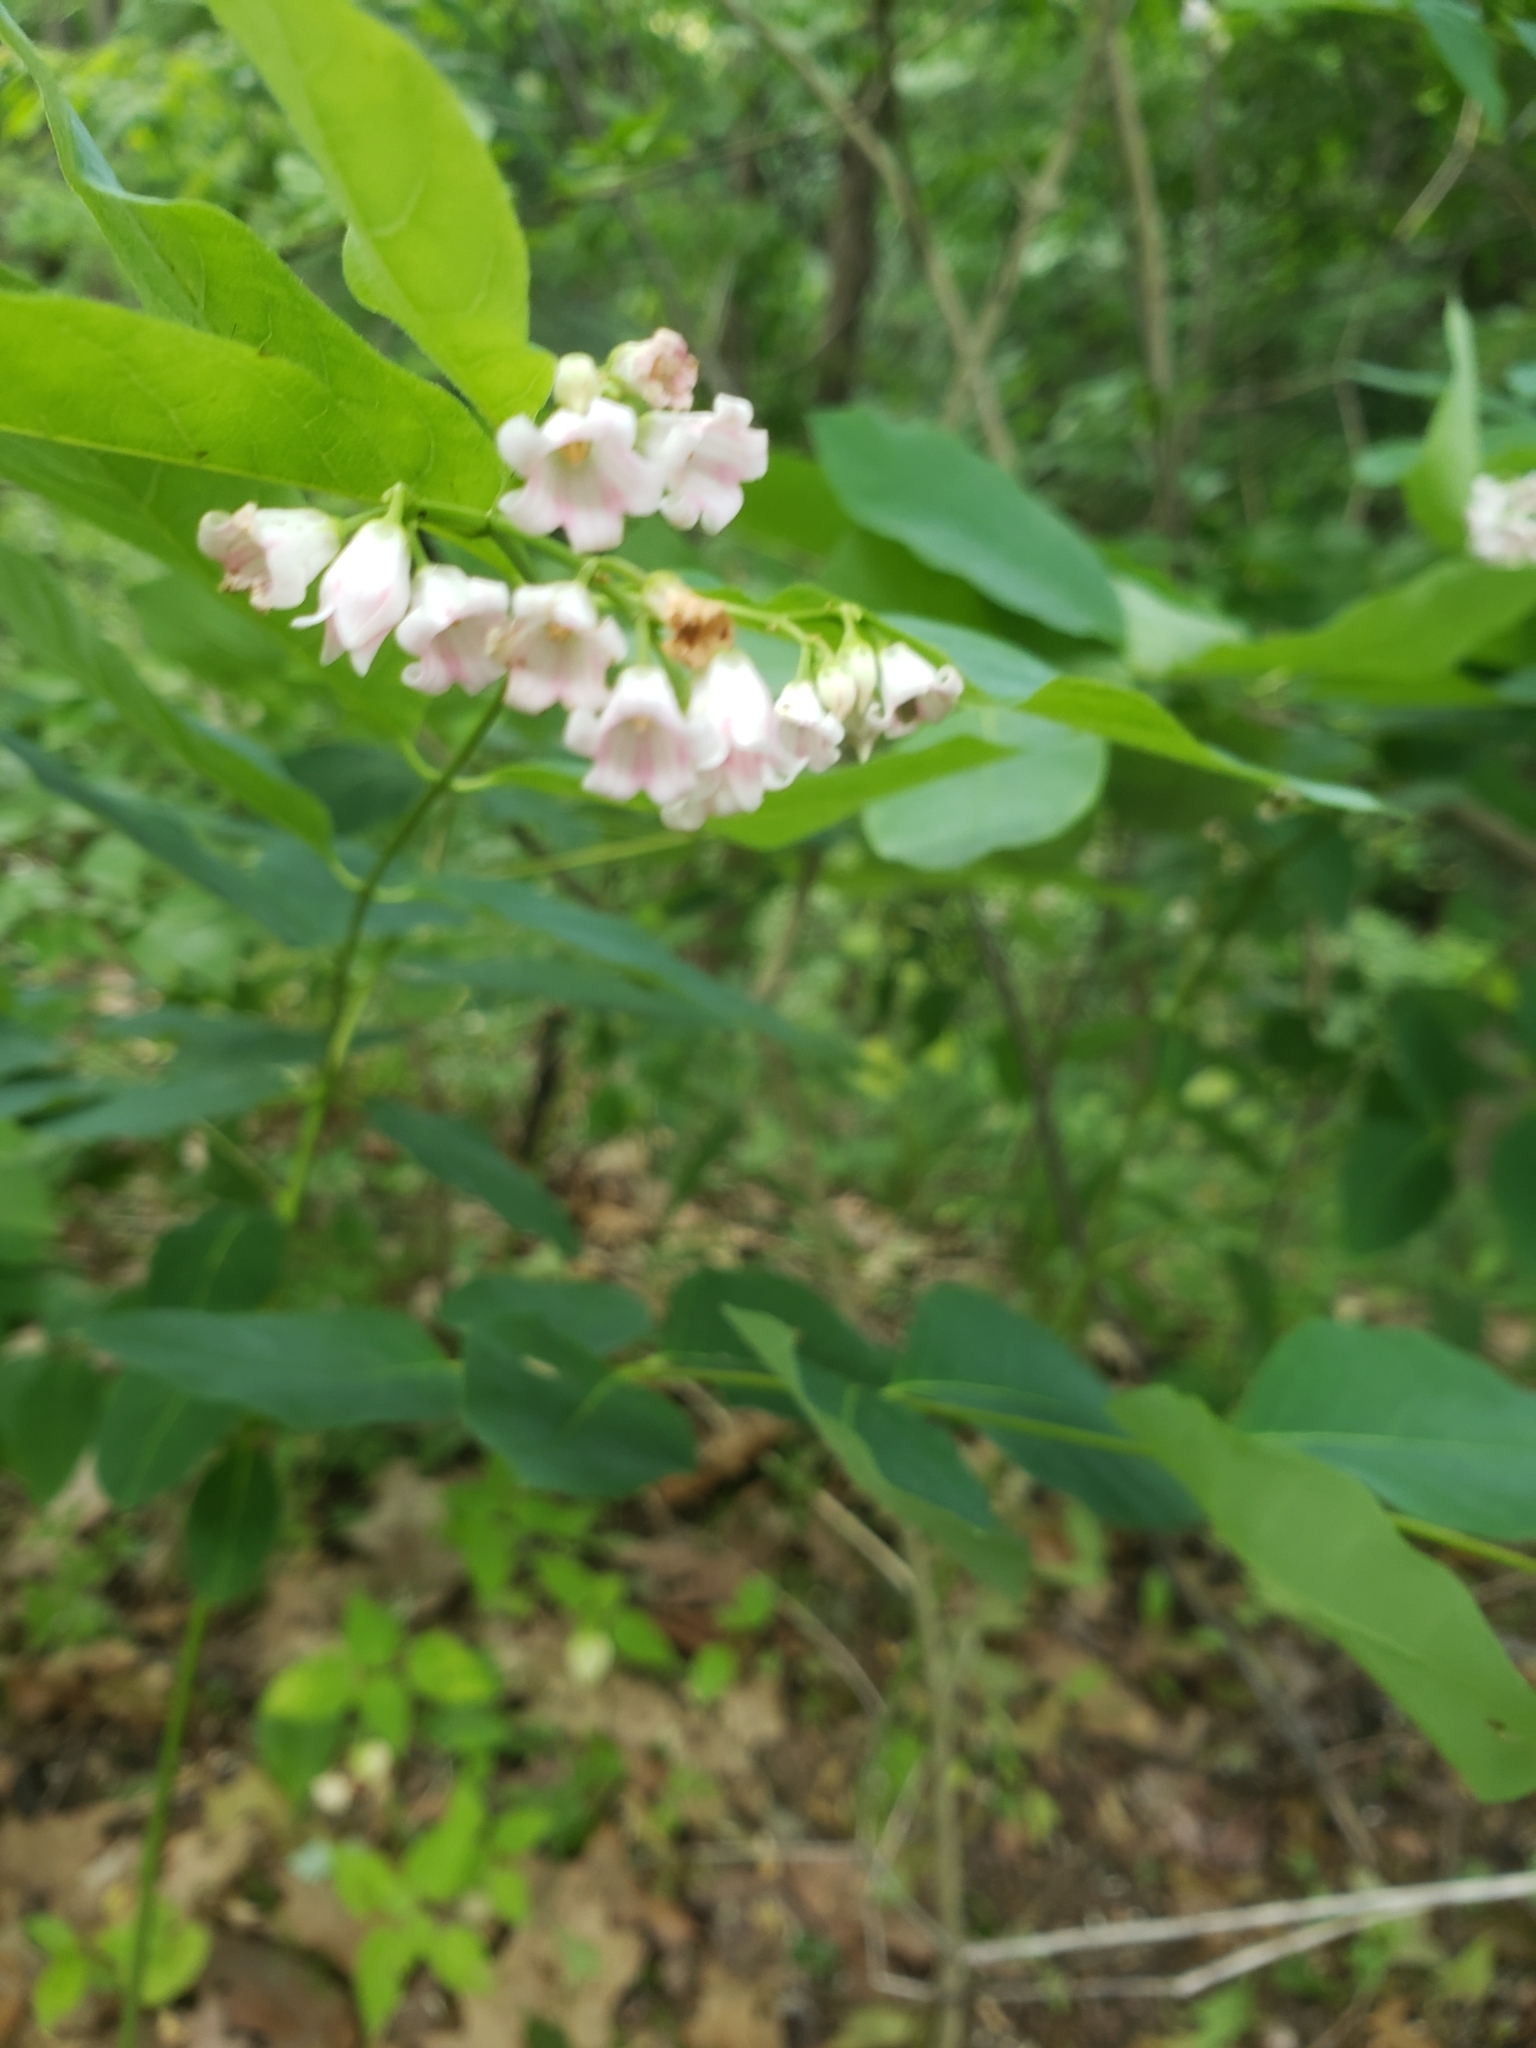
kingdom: Plantae
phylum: Tracheophyta
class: Magnoliopsida
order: Gentianales
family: Apocynaceae
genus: Apocynum
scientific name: Apocynum androsaemifolium
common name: Spreading dogbane
